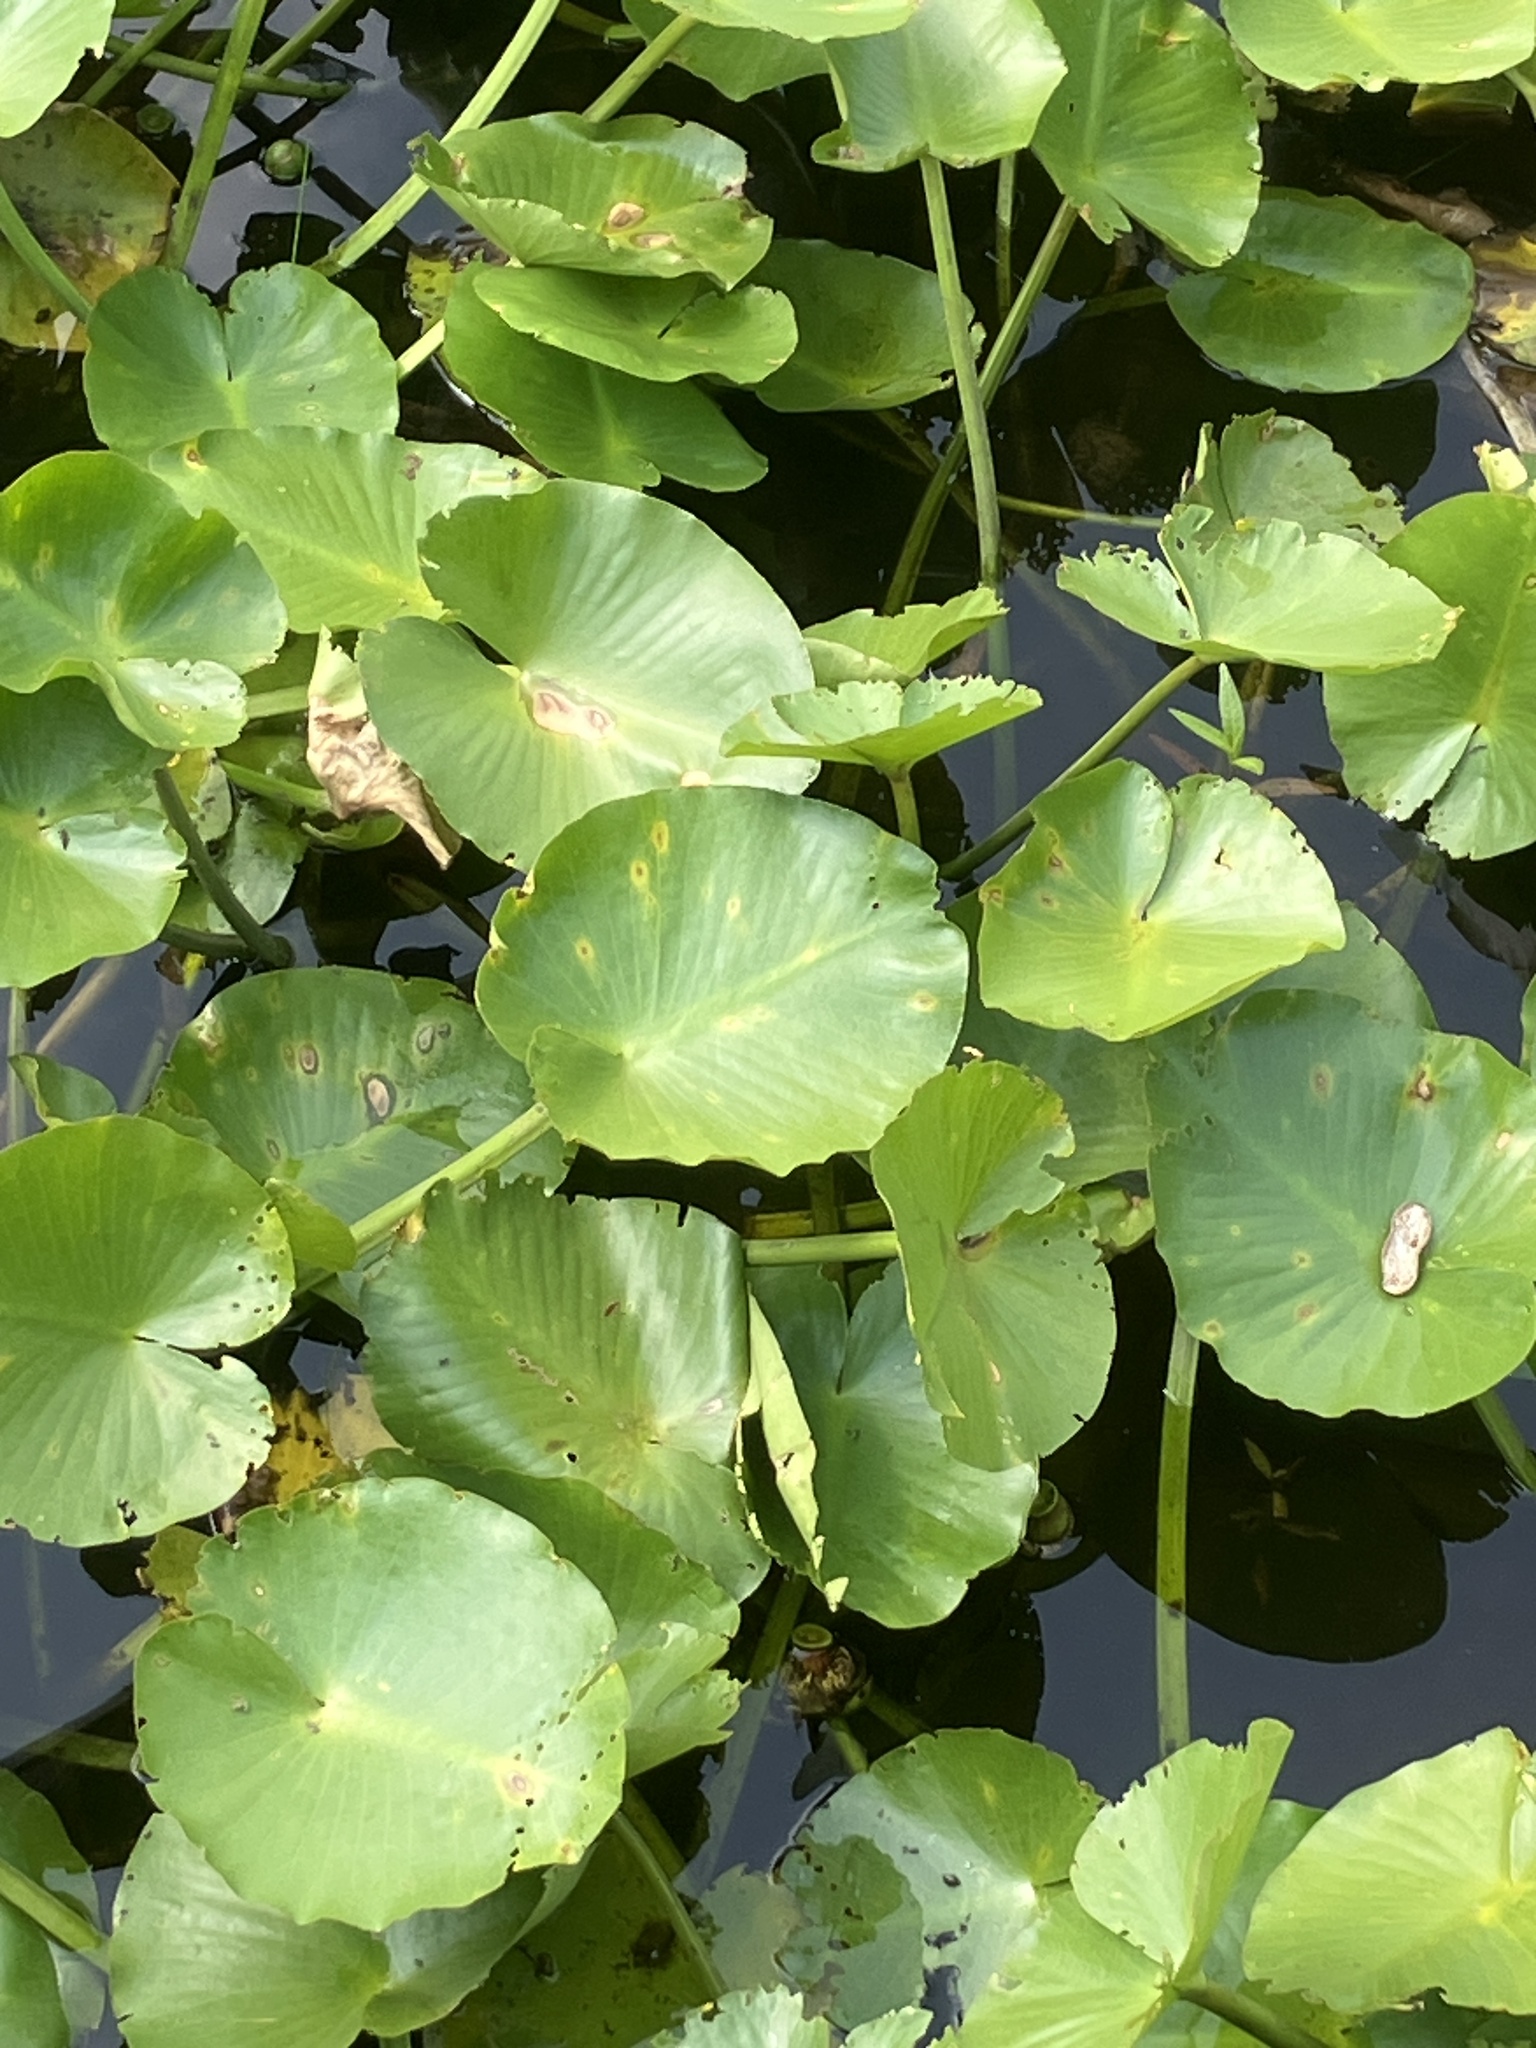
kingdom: Plantae
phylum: Tracheophyta
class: Magnoliopsida
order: Nymphaeales
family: Nymphaeaceae
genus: Nuphar
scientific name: Nuphar advena
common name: Spatter-dock
